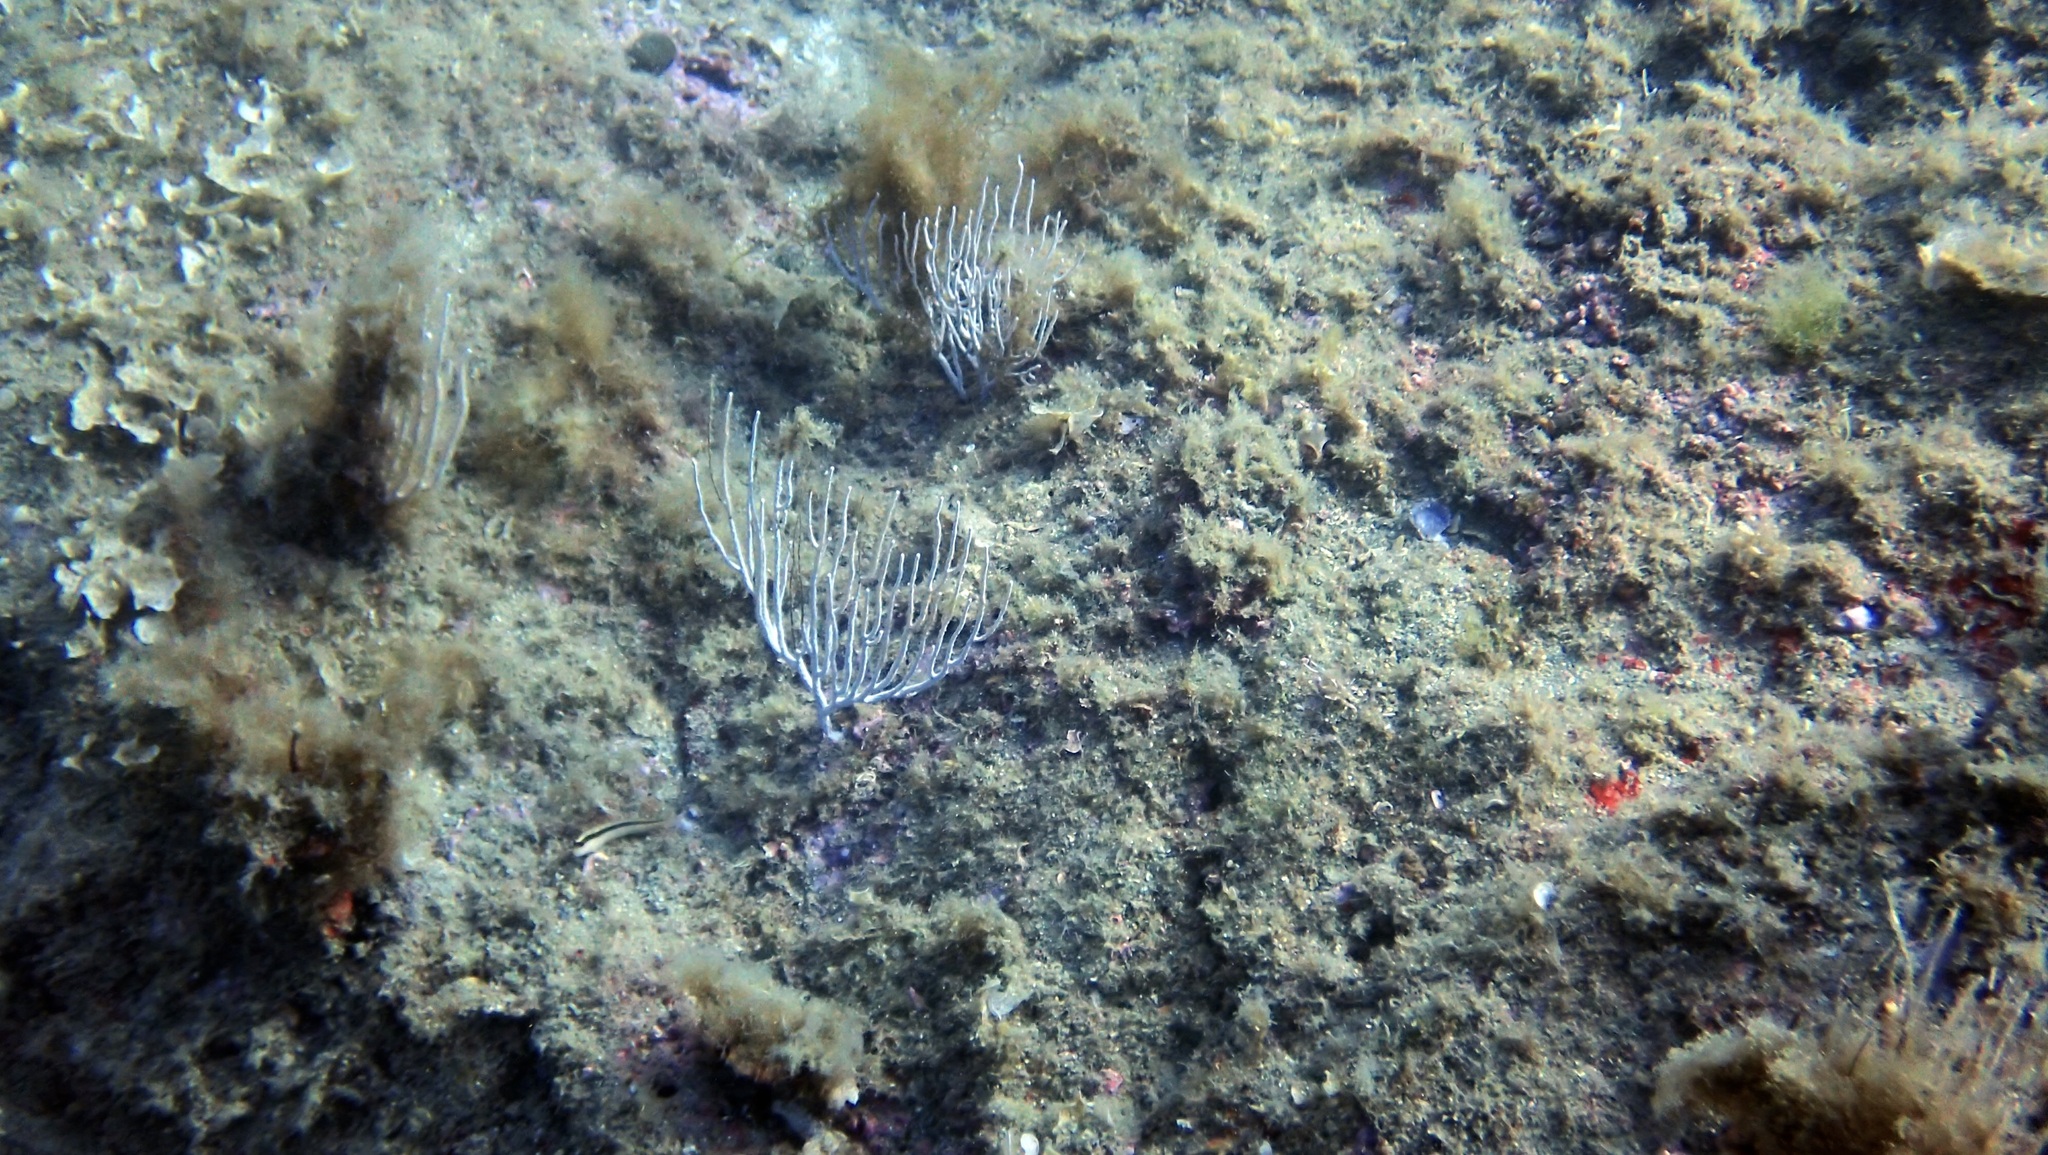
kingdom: Animalia
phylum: Cnidaria
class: Anthozoa
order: Malacalcyonacea
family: Eunicellidae
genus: Eunicella
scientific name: Eunicella singularis
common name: White horny coral
